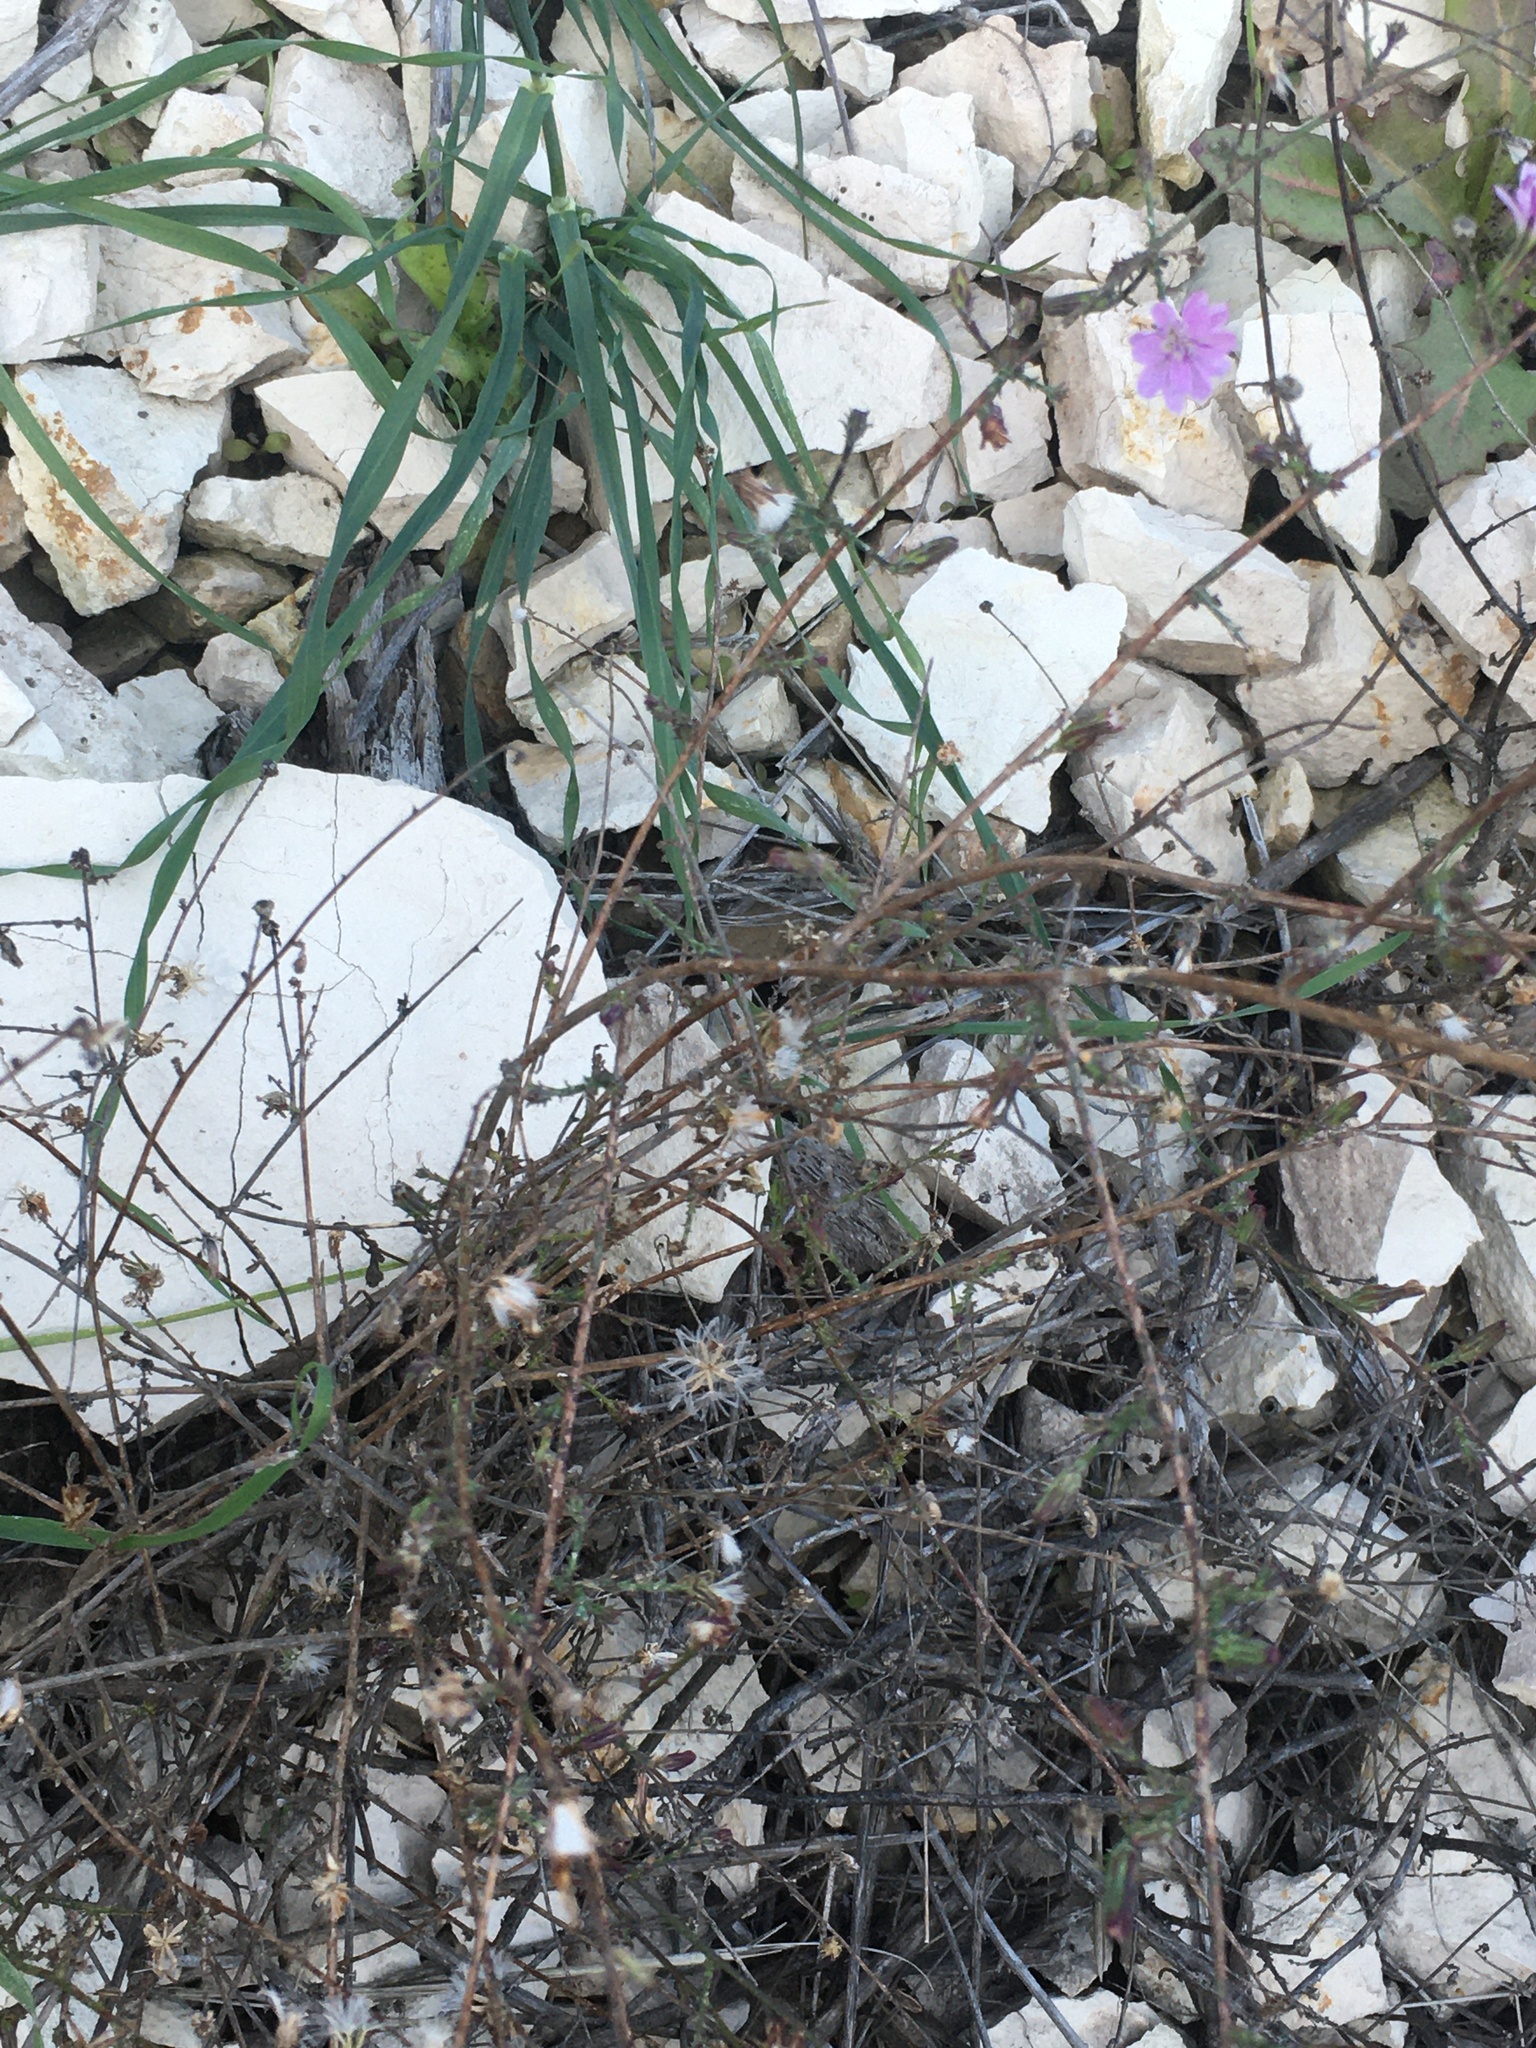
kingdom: Plantae
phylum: Tracheophyta
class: Magnoliopsida
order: Asterales
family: Asteraceae
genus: Stephanomeria
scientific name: Stephanomeria elata
